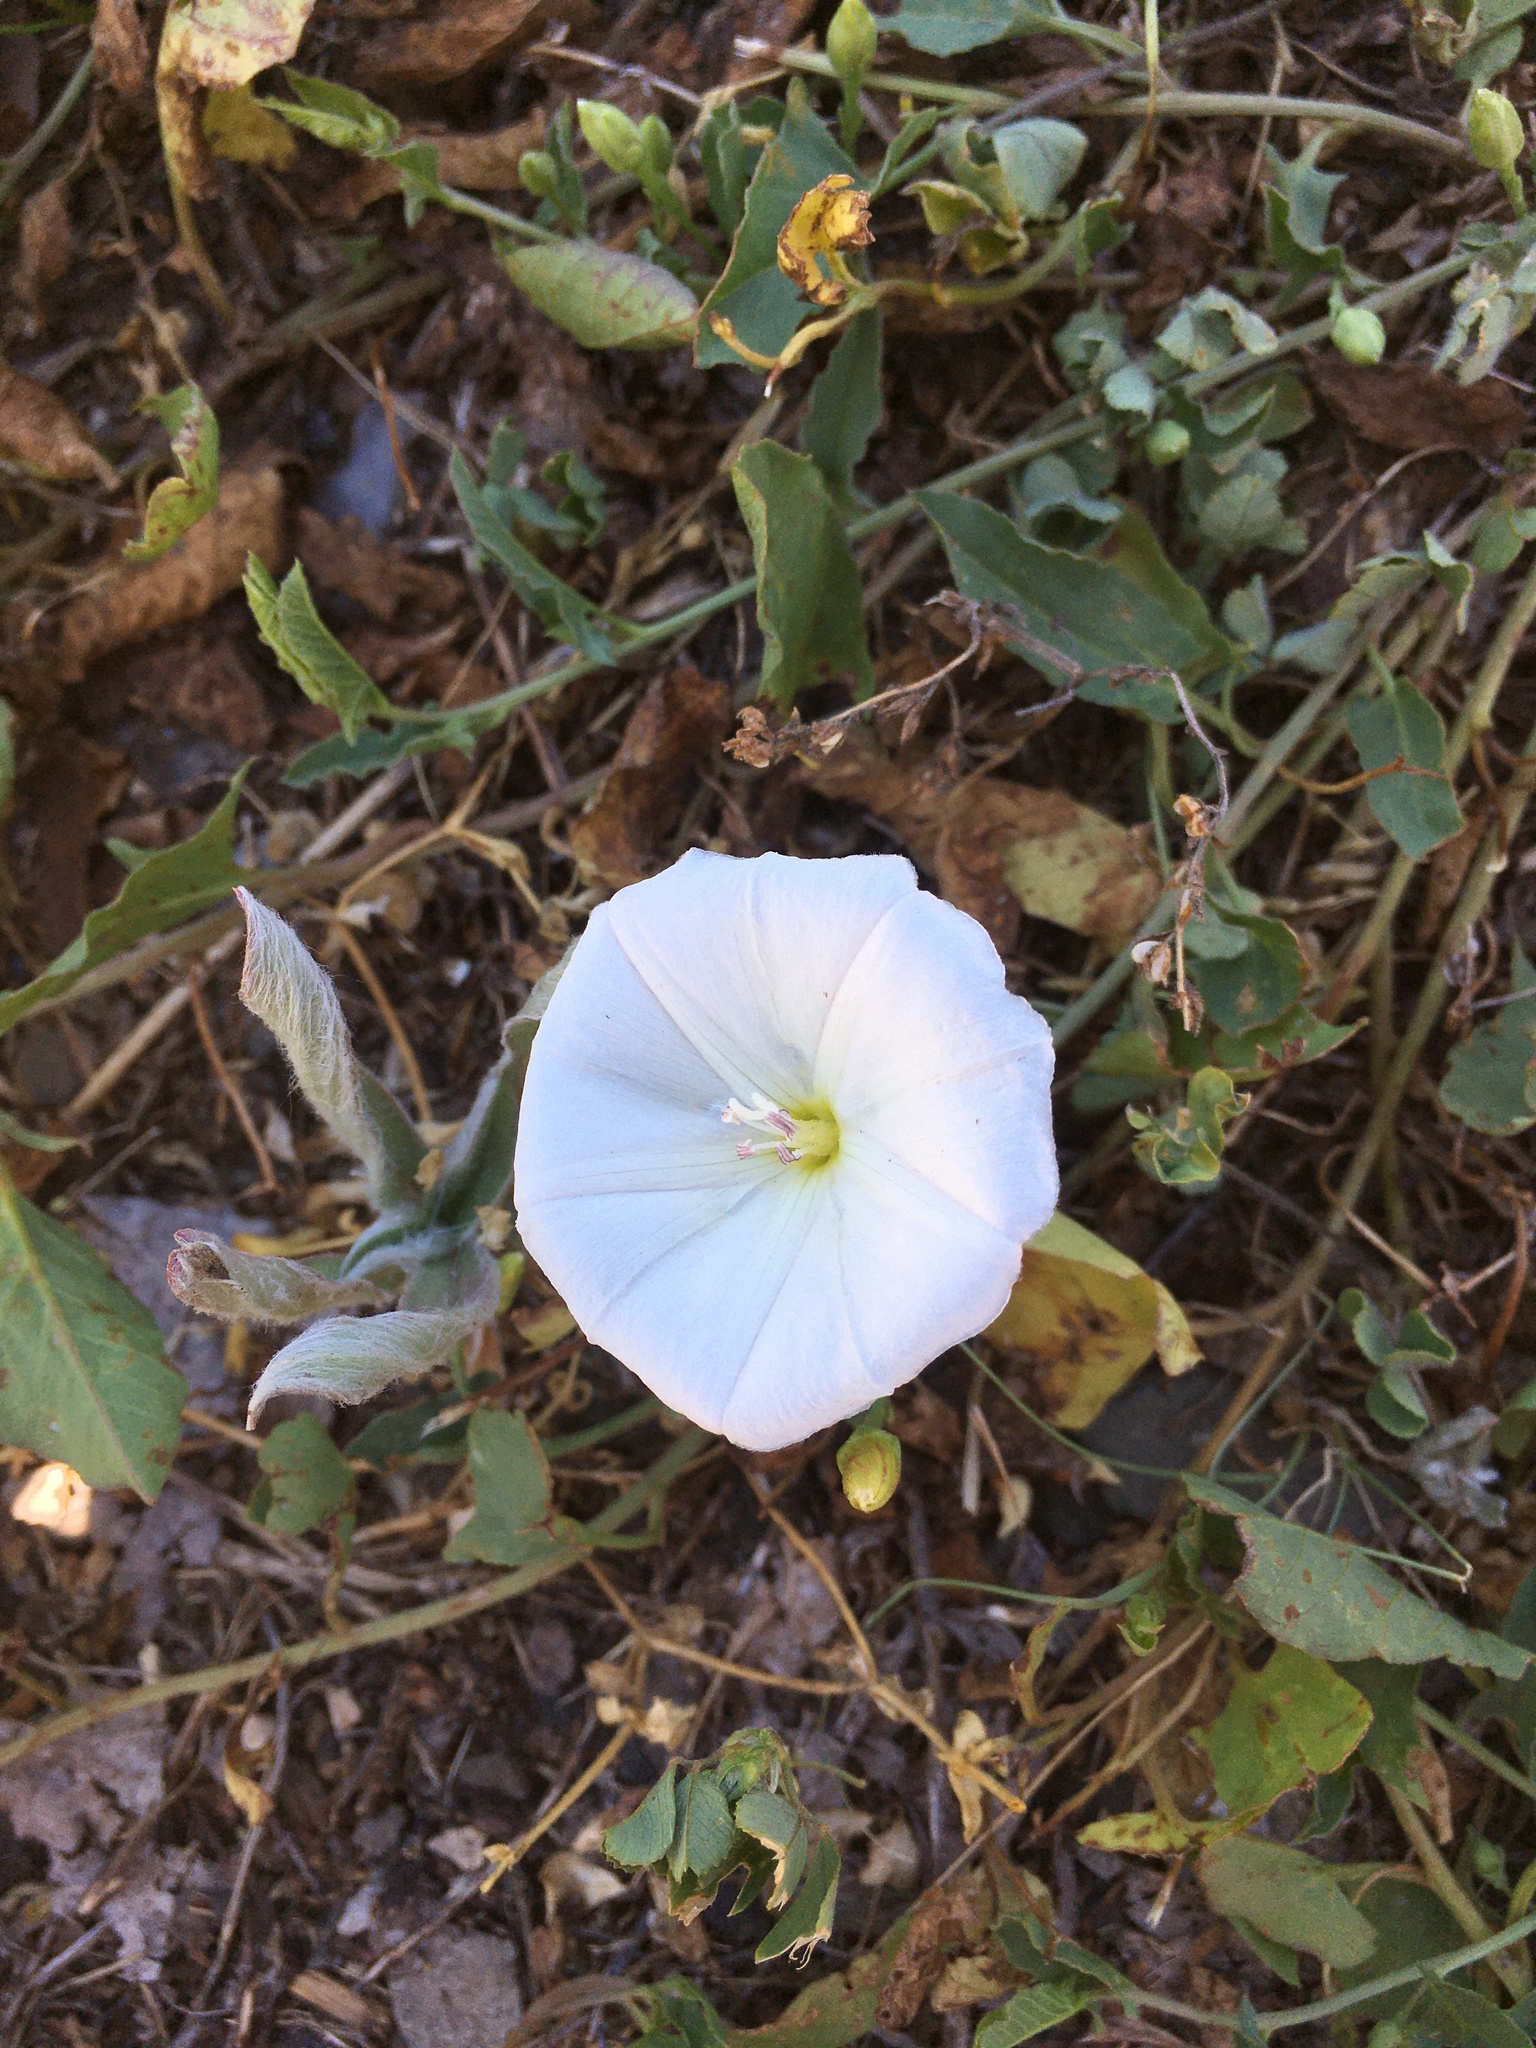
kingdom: Plantae
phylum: Tracheophyta
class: Magnoliopsida
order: Solanales
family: Convolvulaceae
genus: Convolvulus
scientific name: Convolvulus arvensis
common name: Field bindweed
